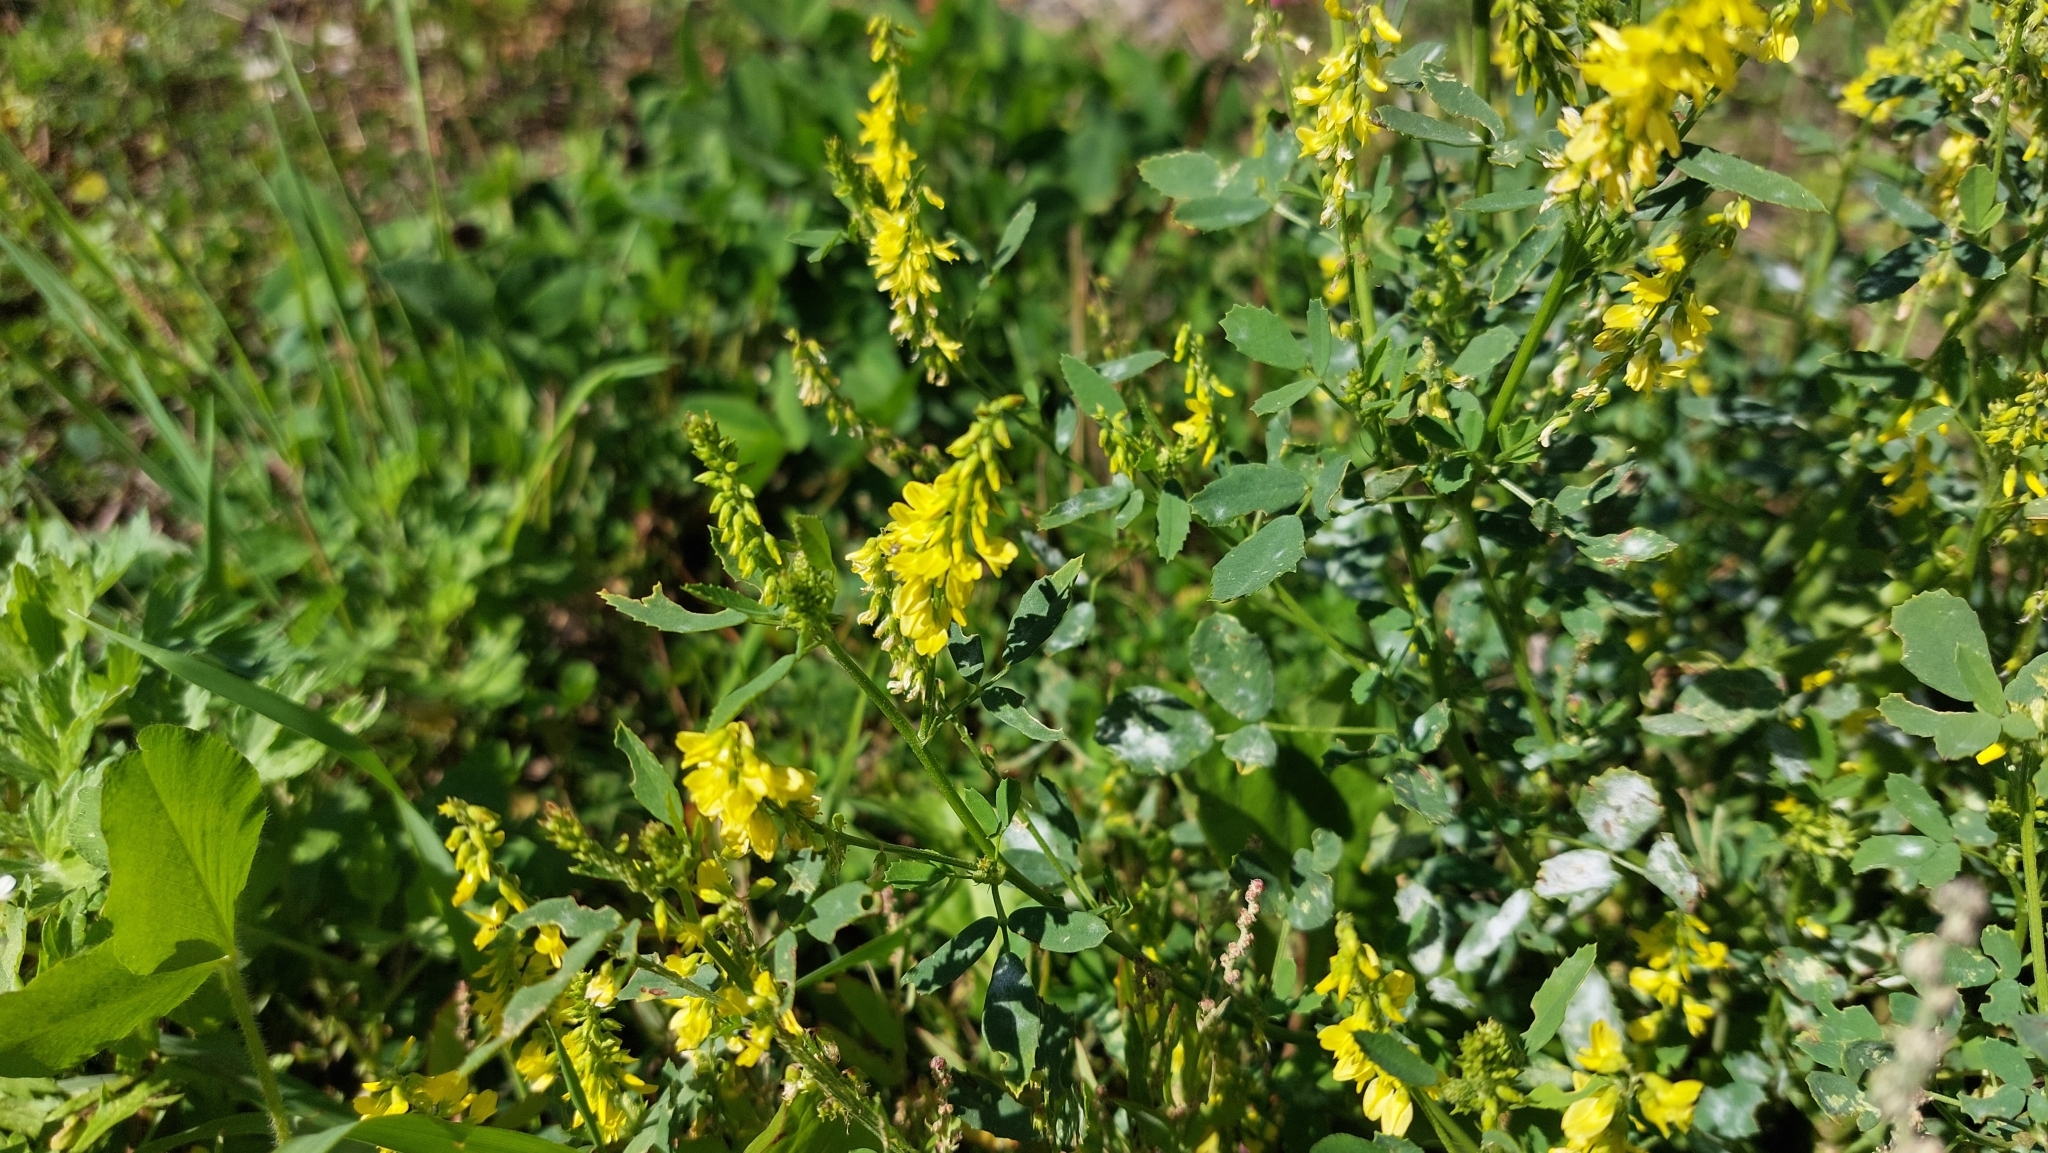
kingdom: Plantae
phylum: Tracheophyta
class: Magnoliopsida
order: Fabales
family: Fabaceae
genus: Melilotus
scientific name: Melilotus officinalis
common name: Sweetclover
